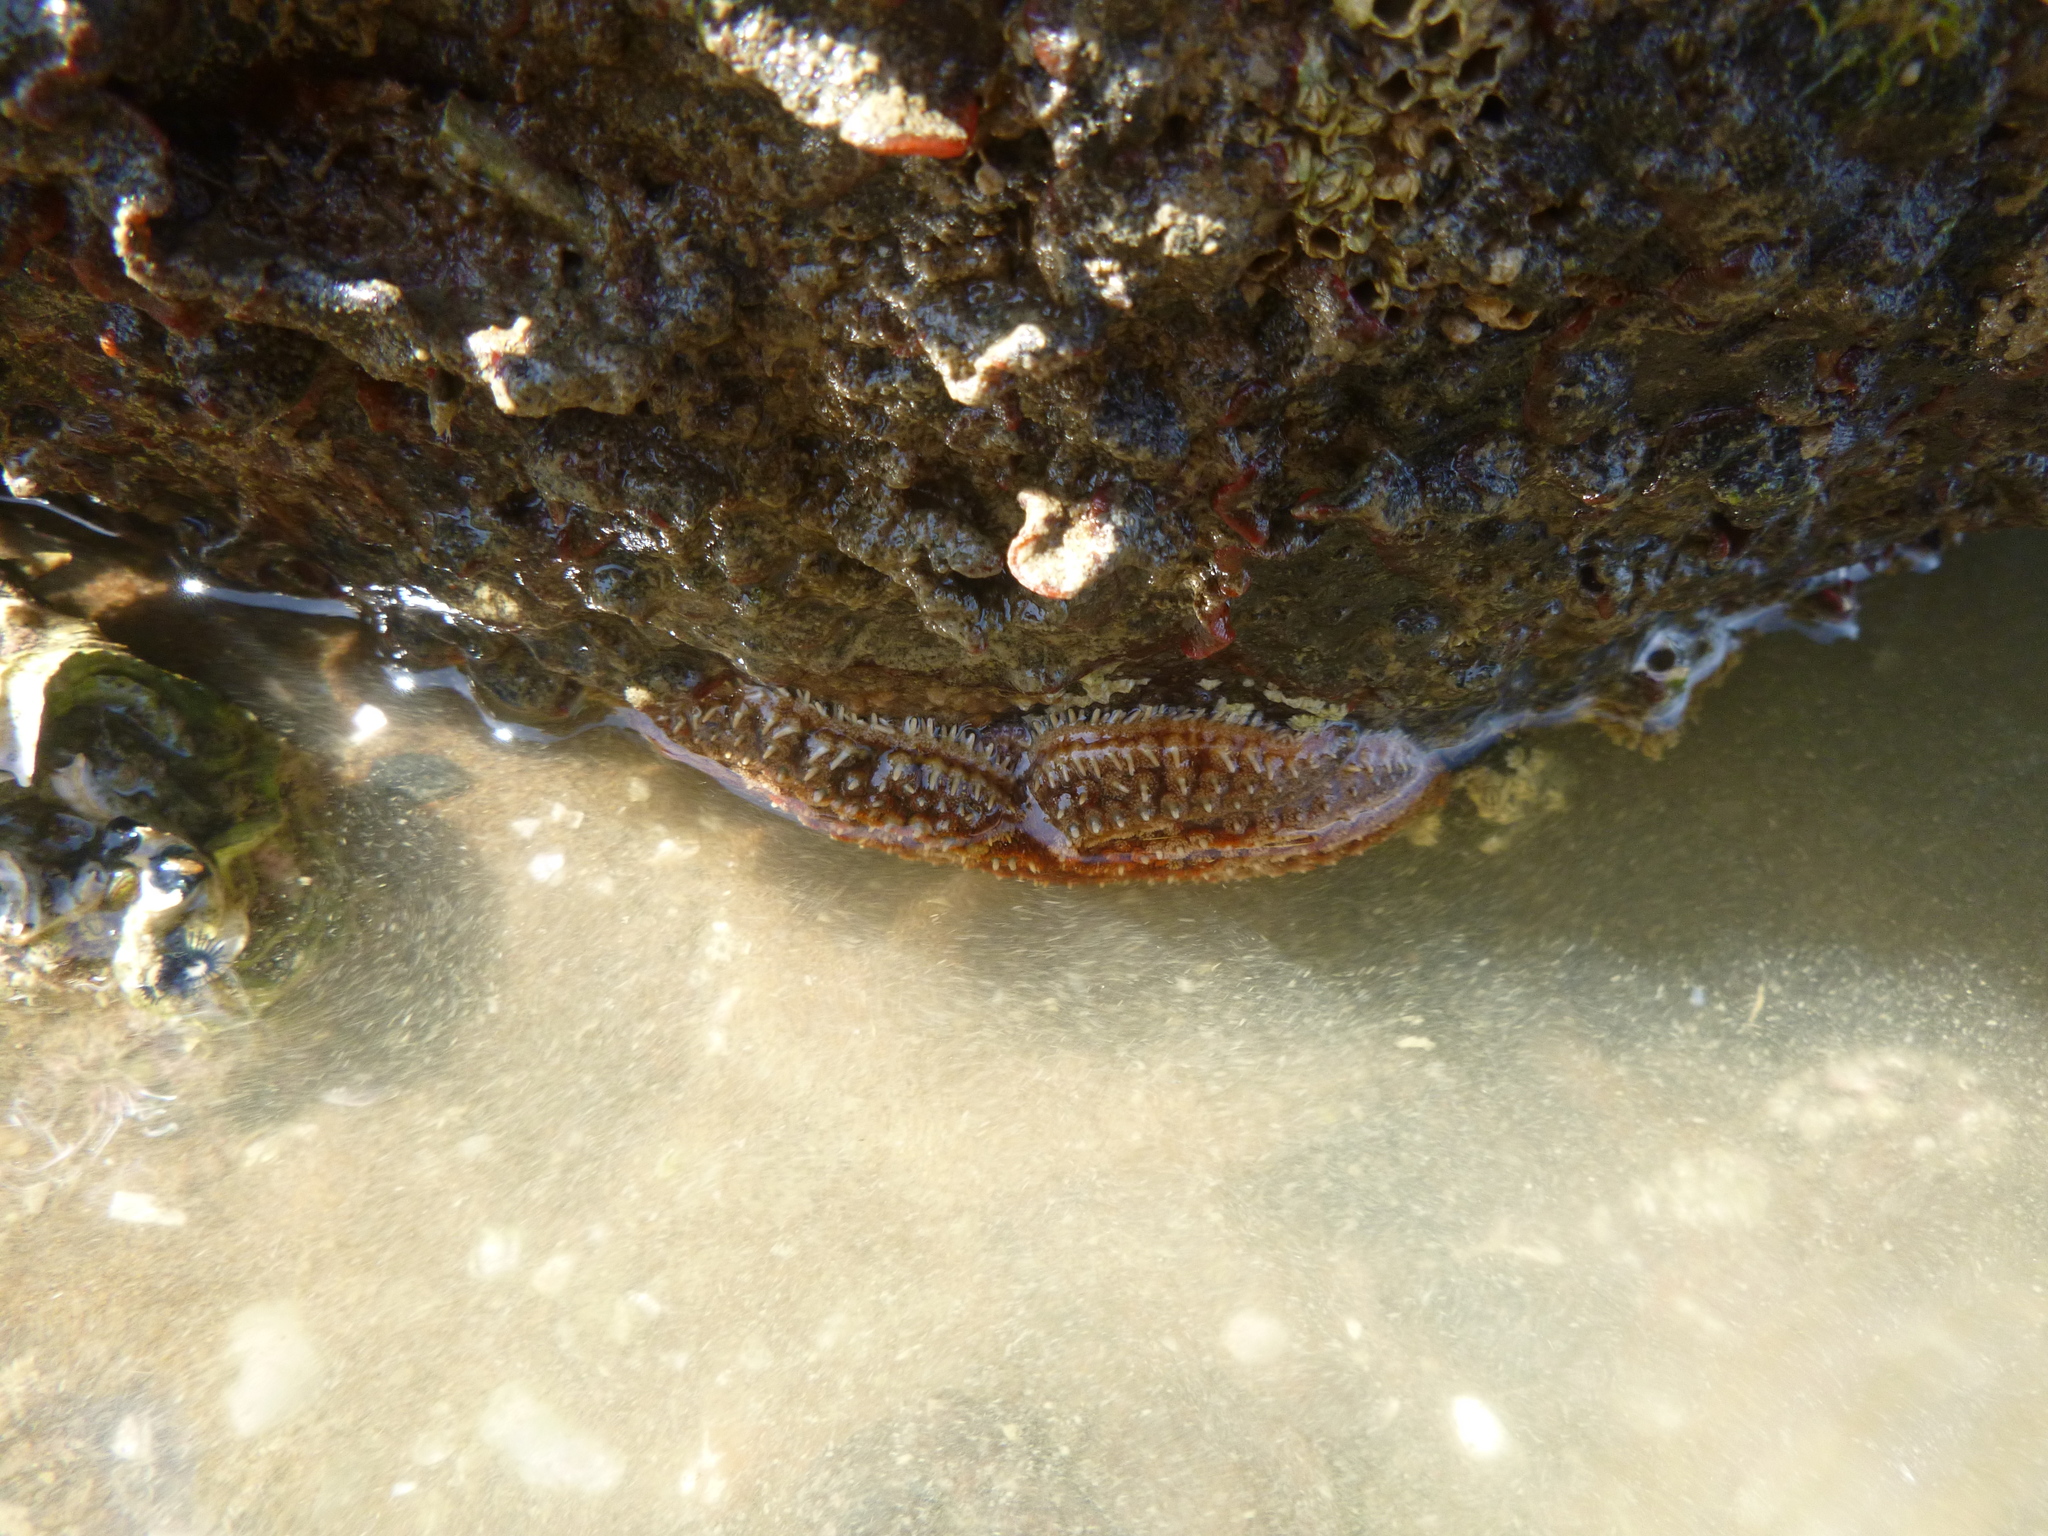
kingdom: Animalia
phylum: Echinodermata
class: Asteroidea
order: Forcipulatida
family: Asteriidae
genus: Coscinasterias
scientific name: Coscinasterias muricata
